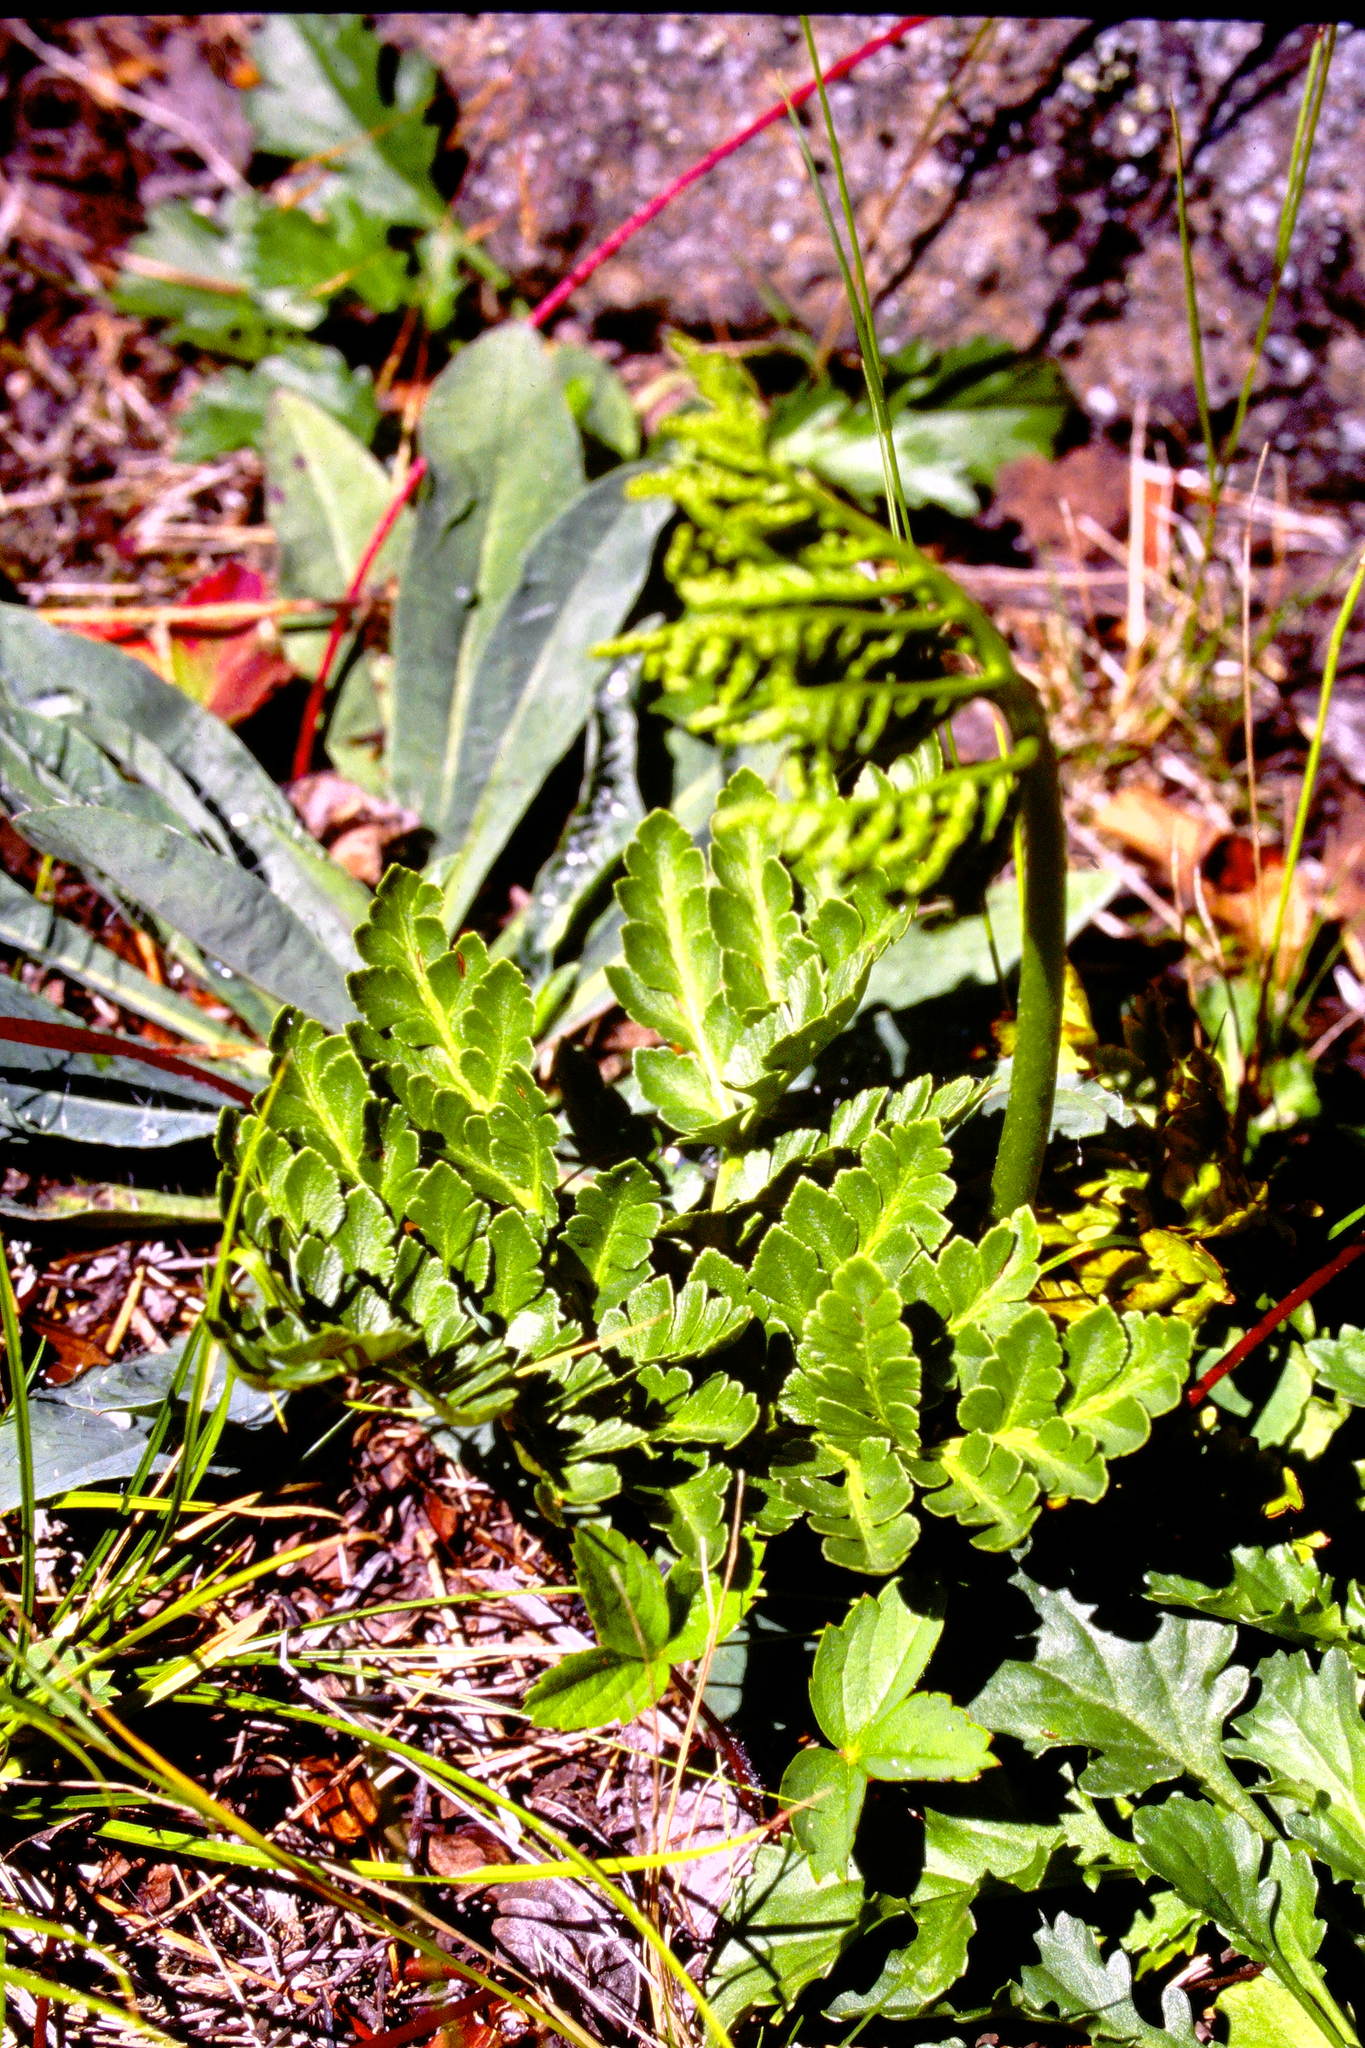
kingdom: Plantae
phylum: Tracheophyta
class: Polypodiopsida
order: Ophioglossales
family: Ophioglossaceae
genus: Sceptridium
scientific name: Sceptridium multifidum
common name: Leathery grape fern
